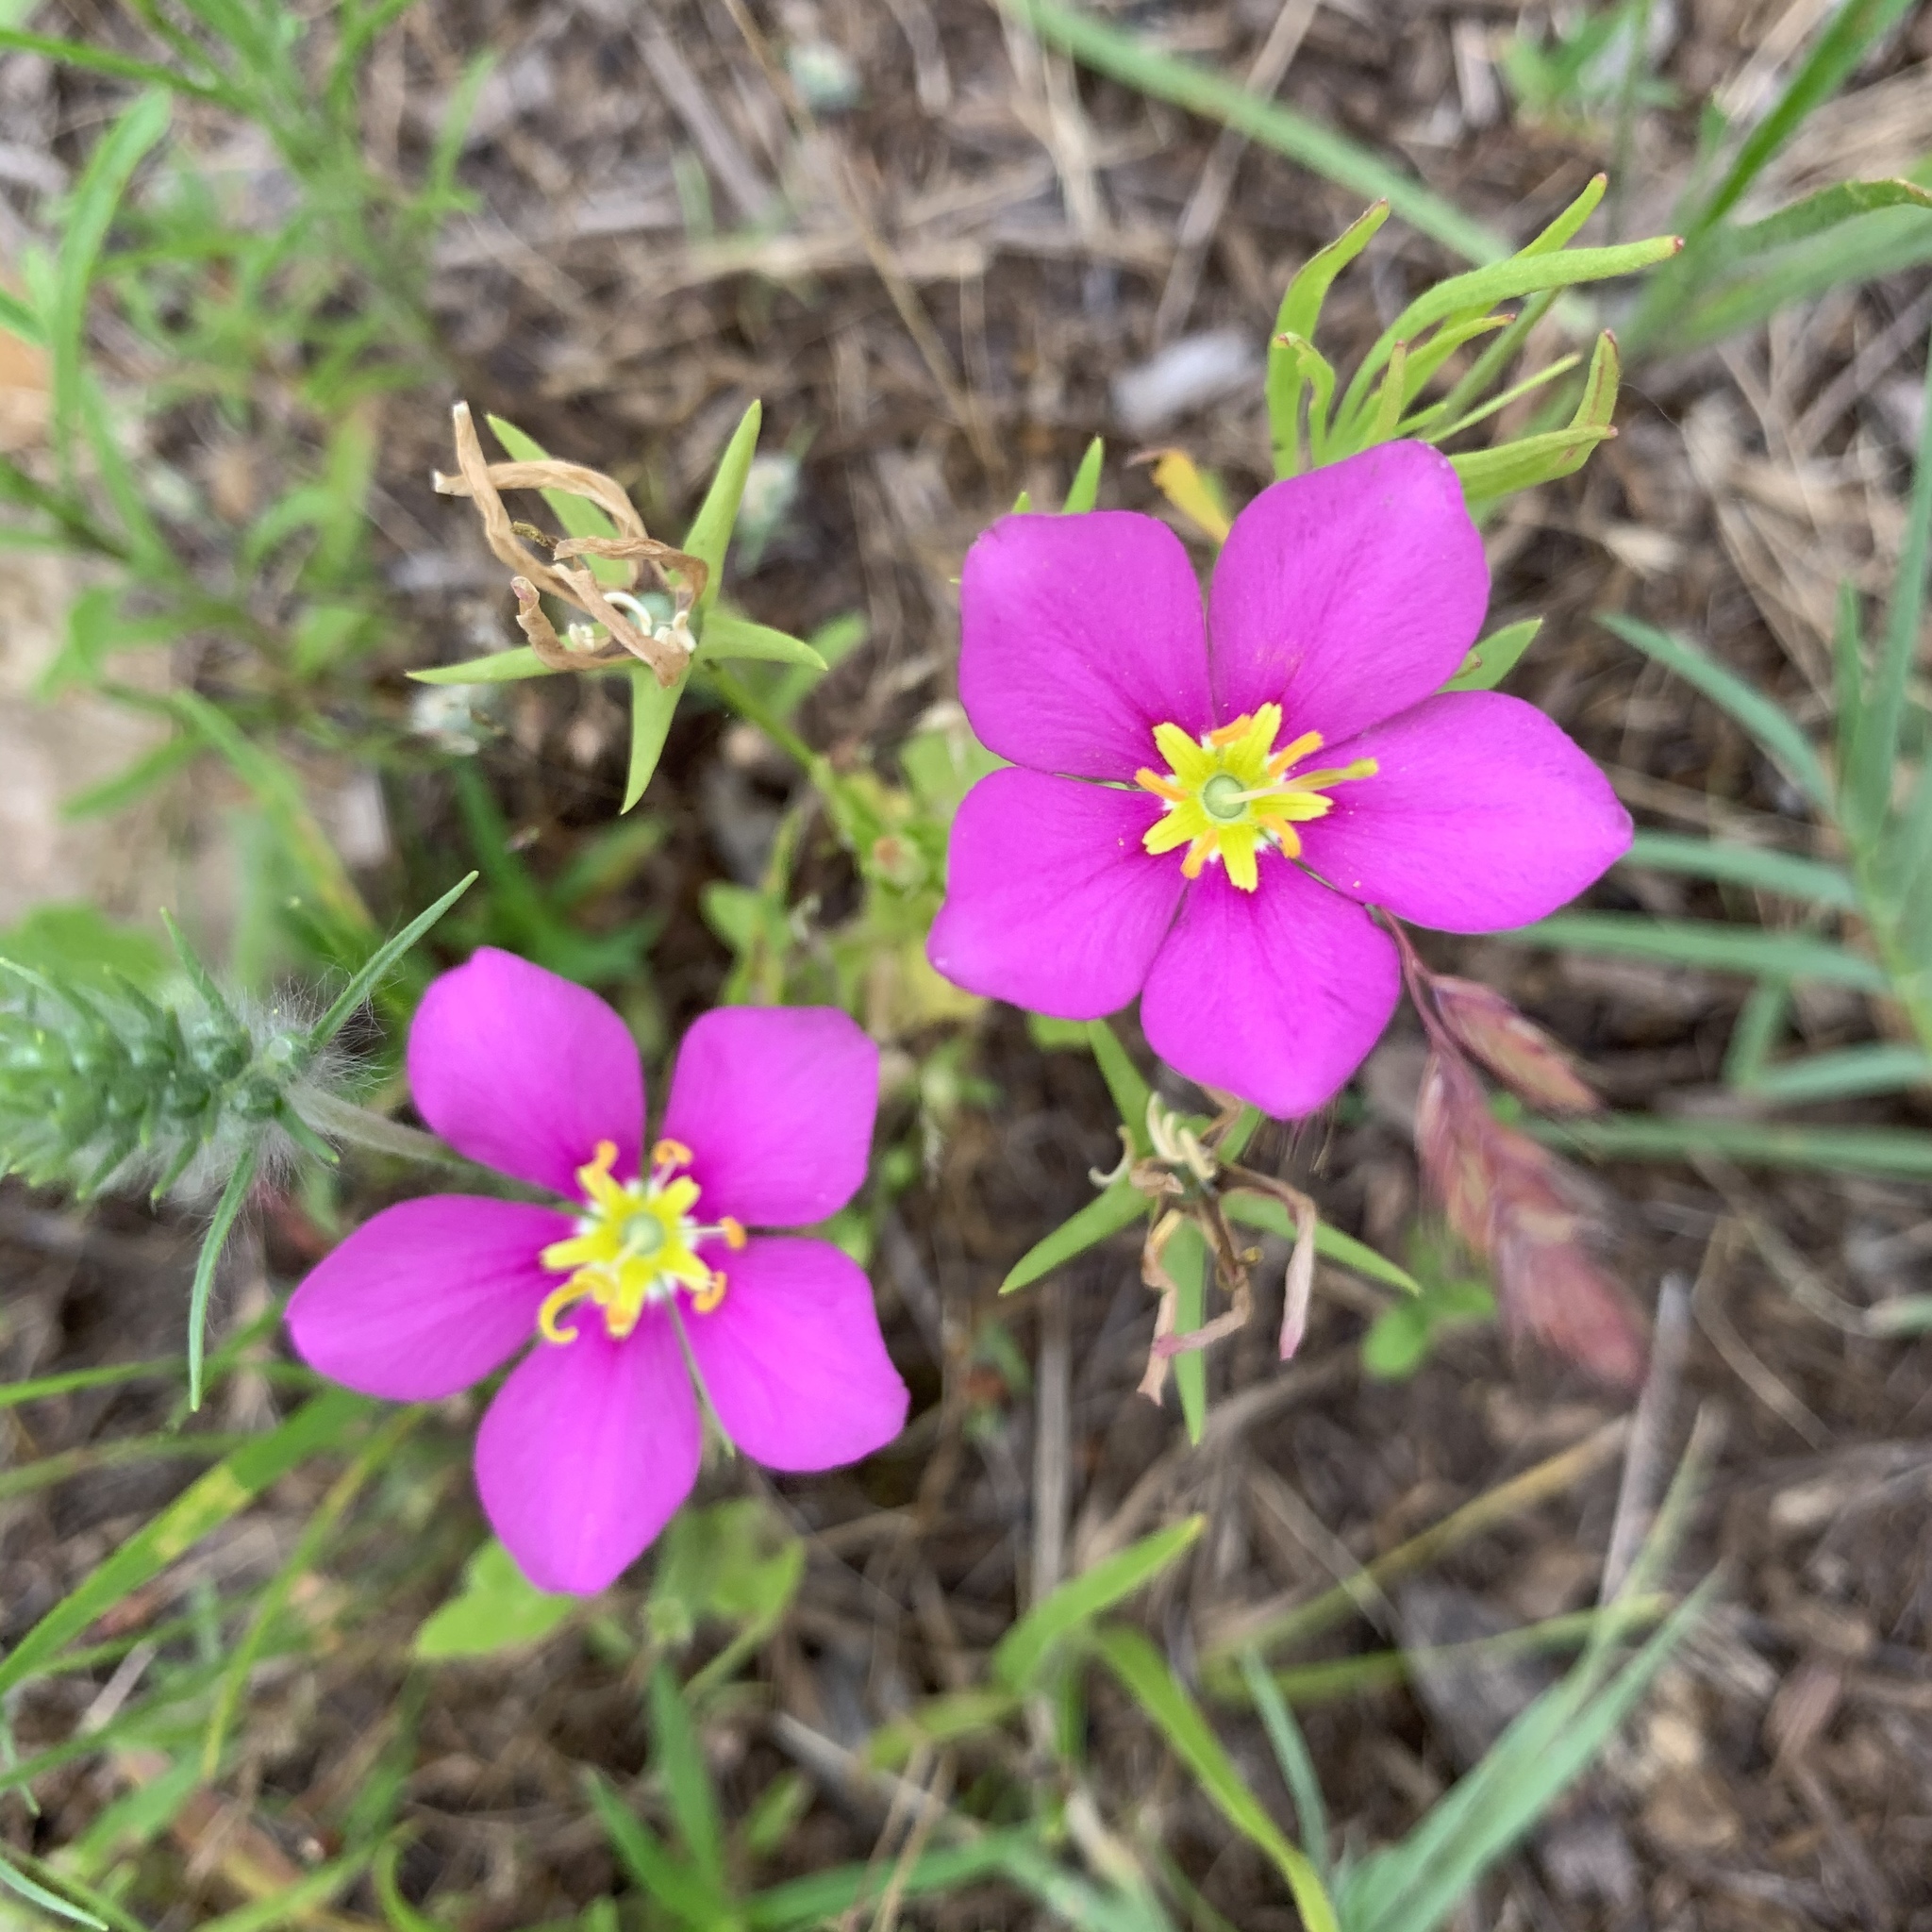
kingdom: Plantae
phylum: Tracheophyta
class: Magnoliopsida
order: Gentianales
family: Gentianaceae
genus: Sabatia
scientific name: Sabatia campestris
